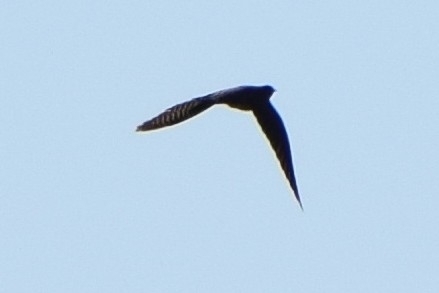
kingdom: Animalia
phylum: Chordata
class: Aves
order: Cuculiformes
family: Cuculidae
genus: Cuculus
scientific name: Cuculus canorus
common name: Common cuckoo
